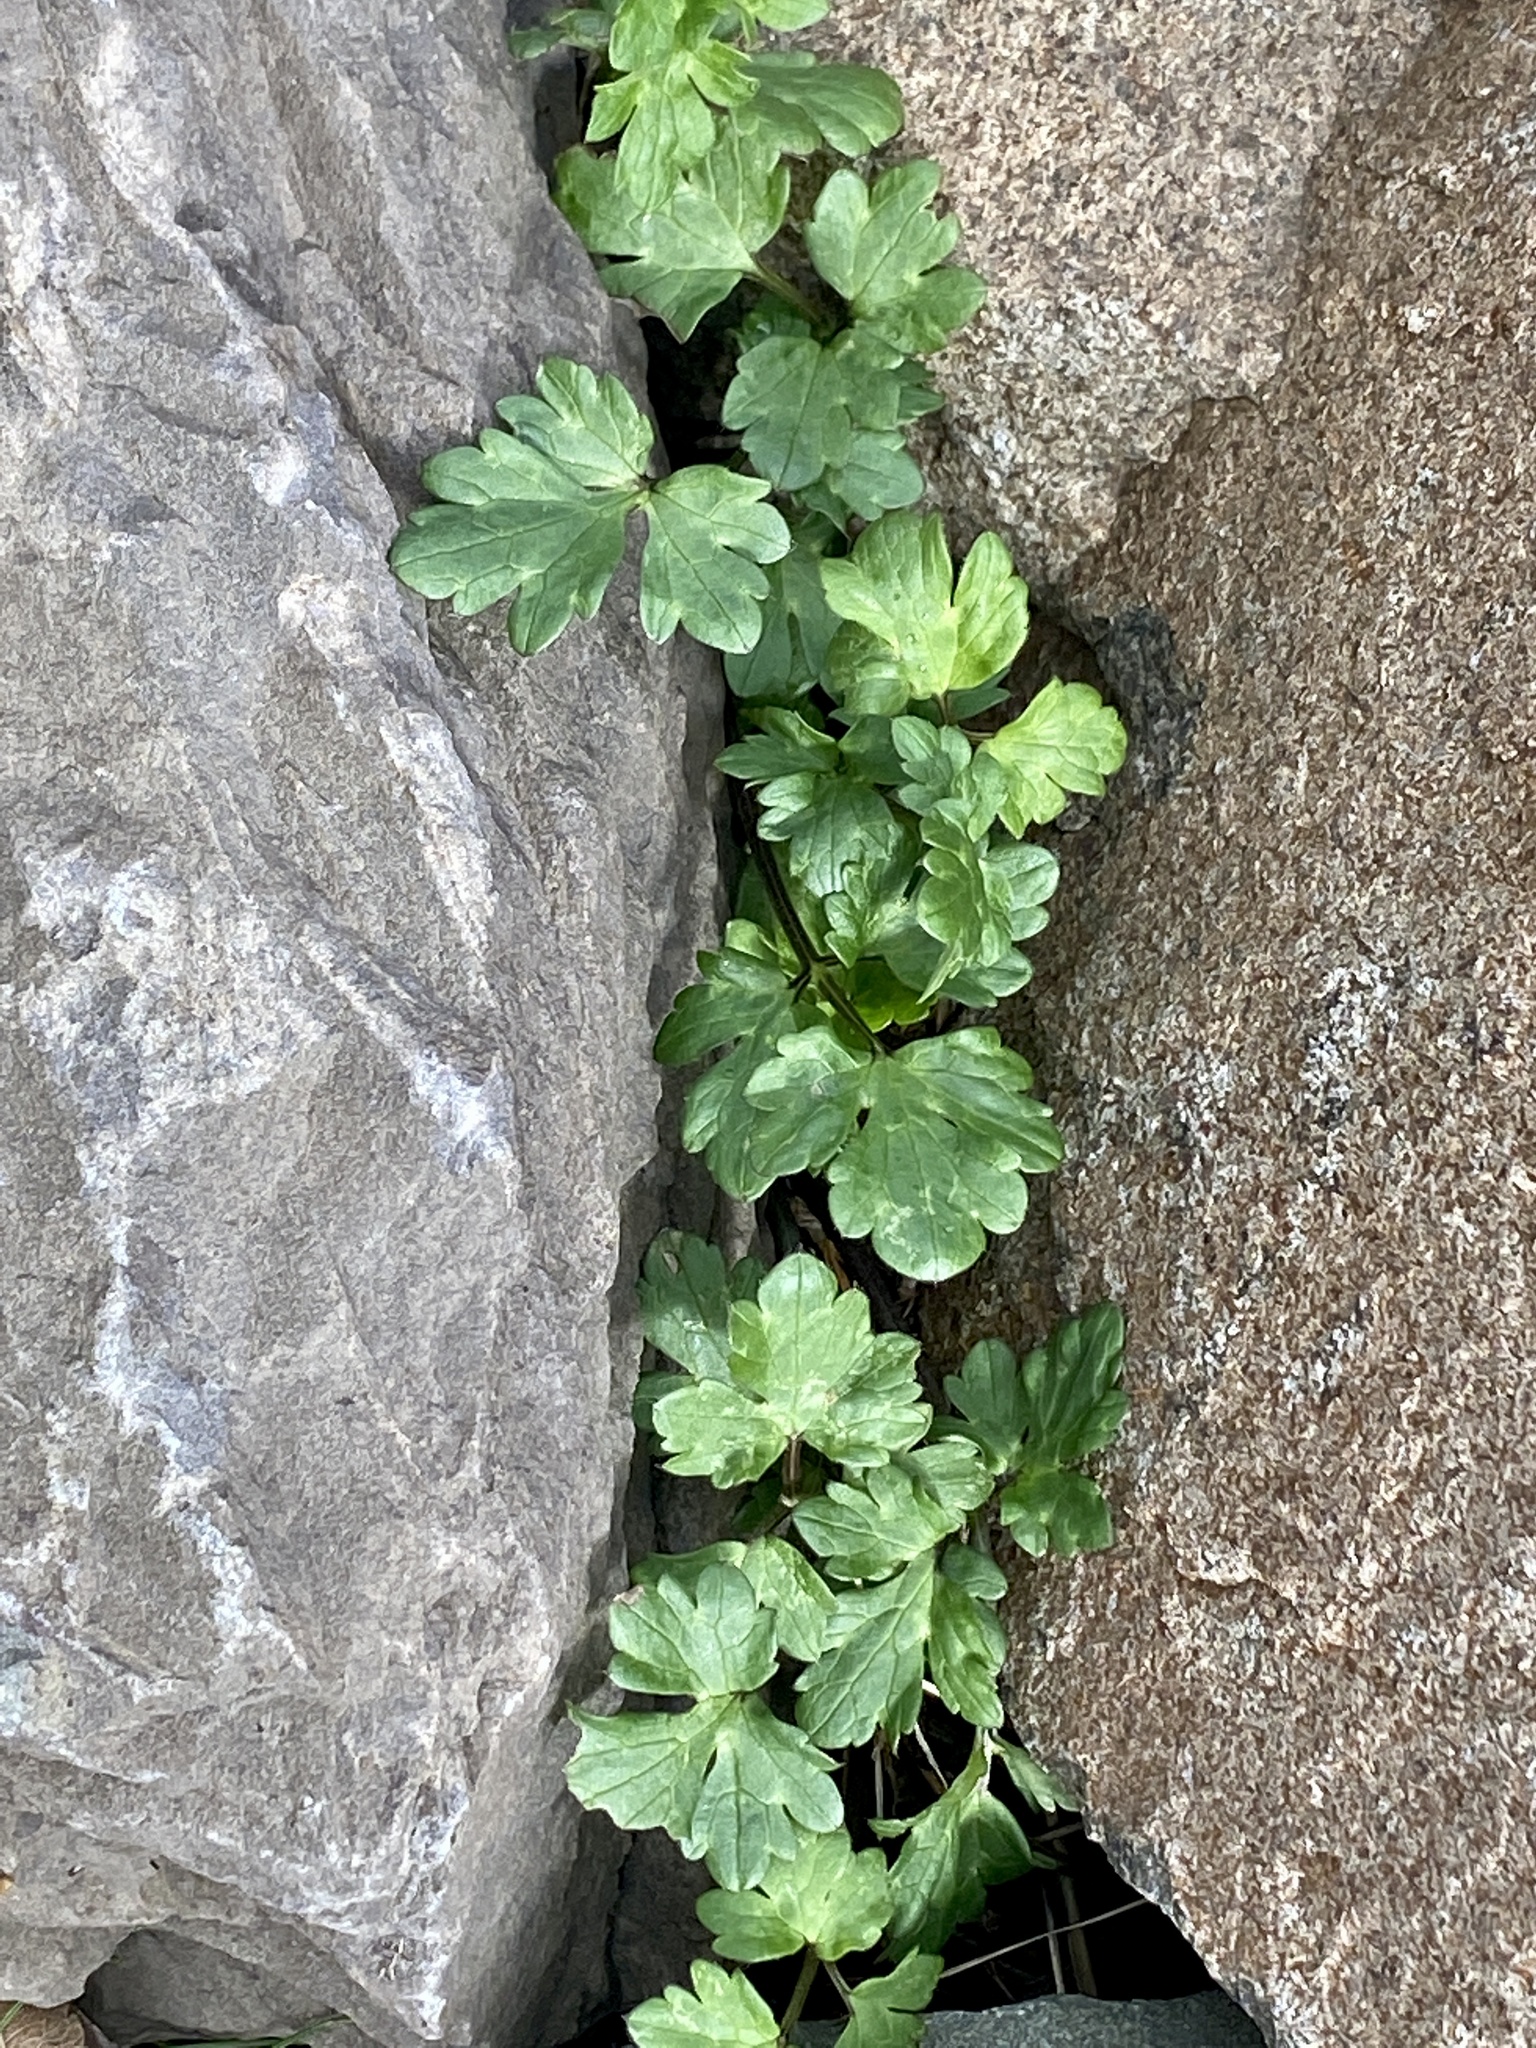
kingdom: Plantae
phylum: Tracheophyta
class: Magnoliopsida
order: Ranunculales
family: Ranunculaceae
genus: Ranunculus
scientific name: Ranunculus repens
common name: Creeping buttercup
